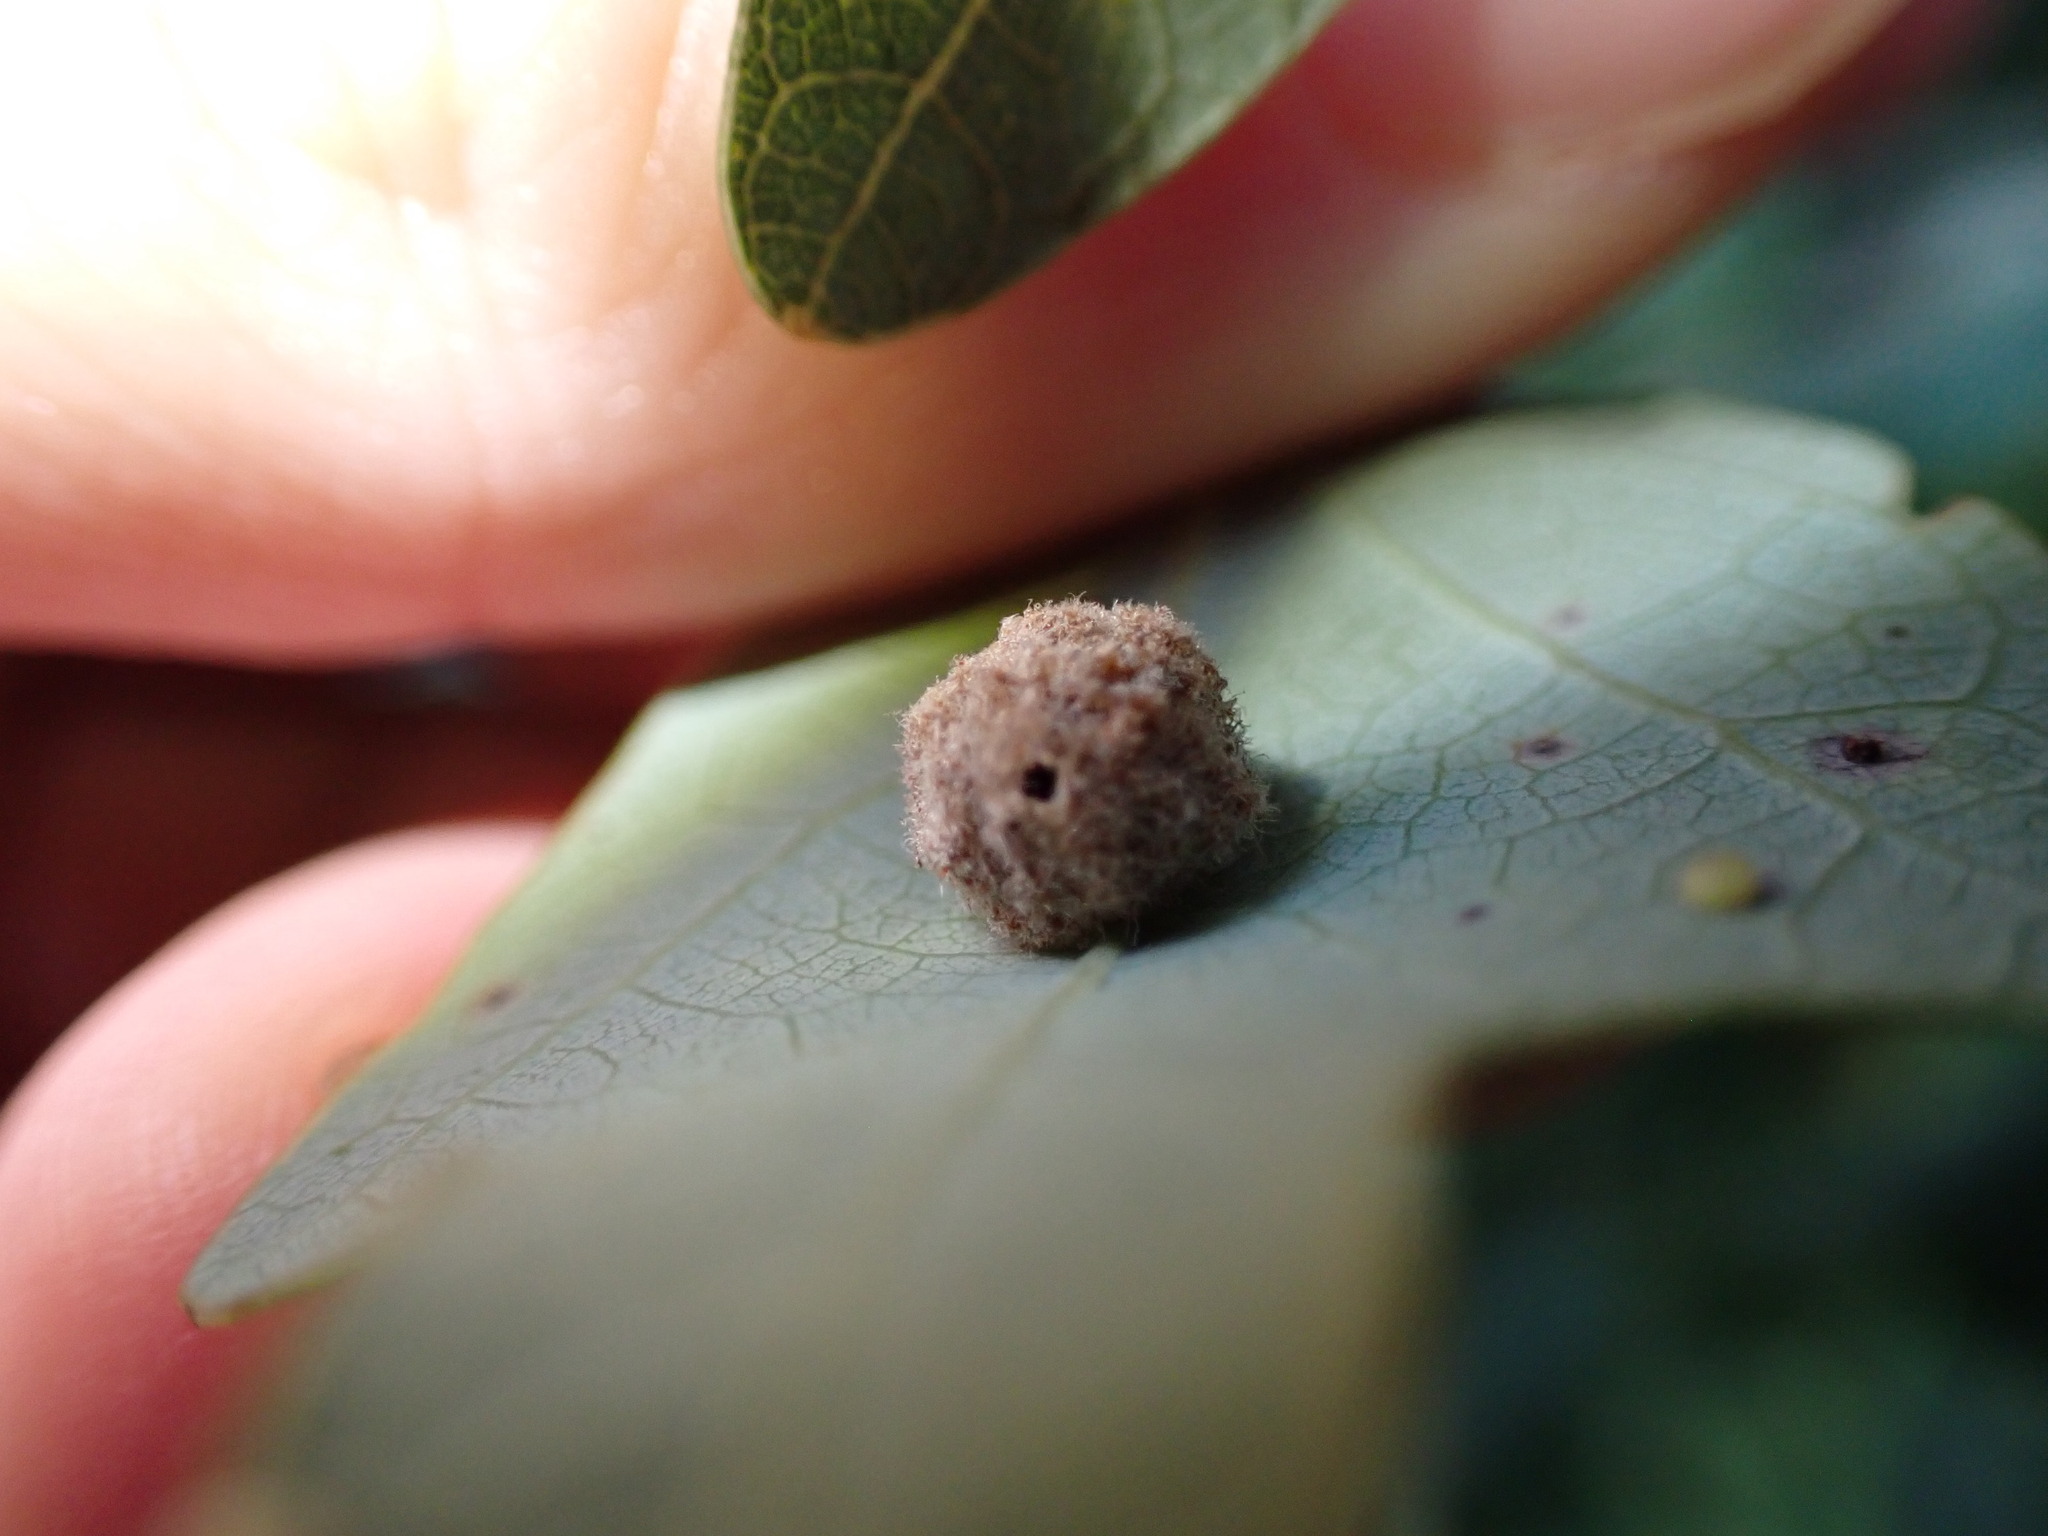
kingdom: Animalia
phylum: Arthropoda
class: Insecta
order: Hymenoptera
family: Cynipidae
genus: Philonix
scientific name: Philonix fulvicollis
